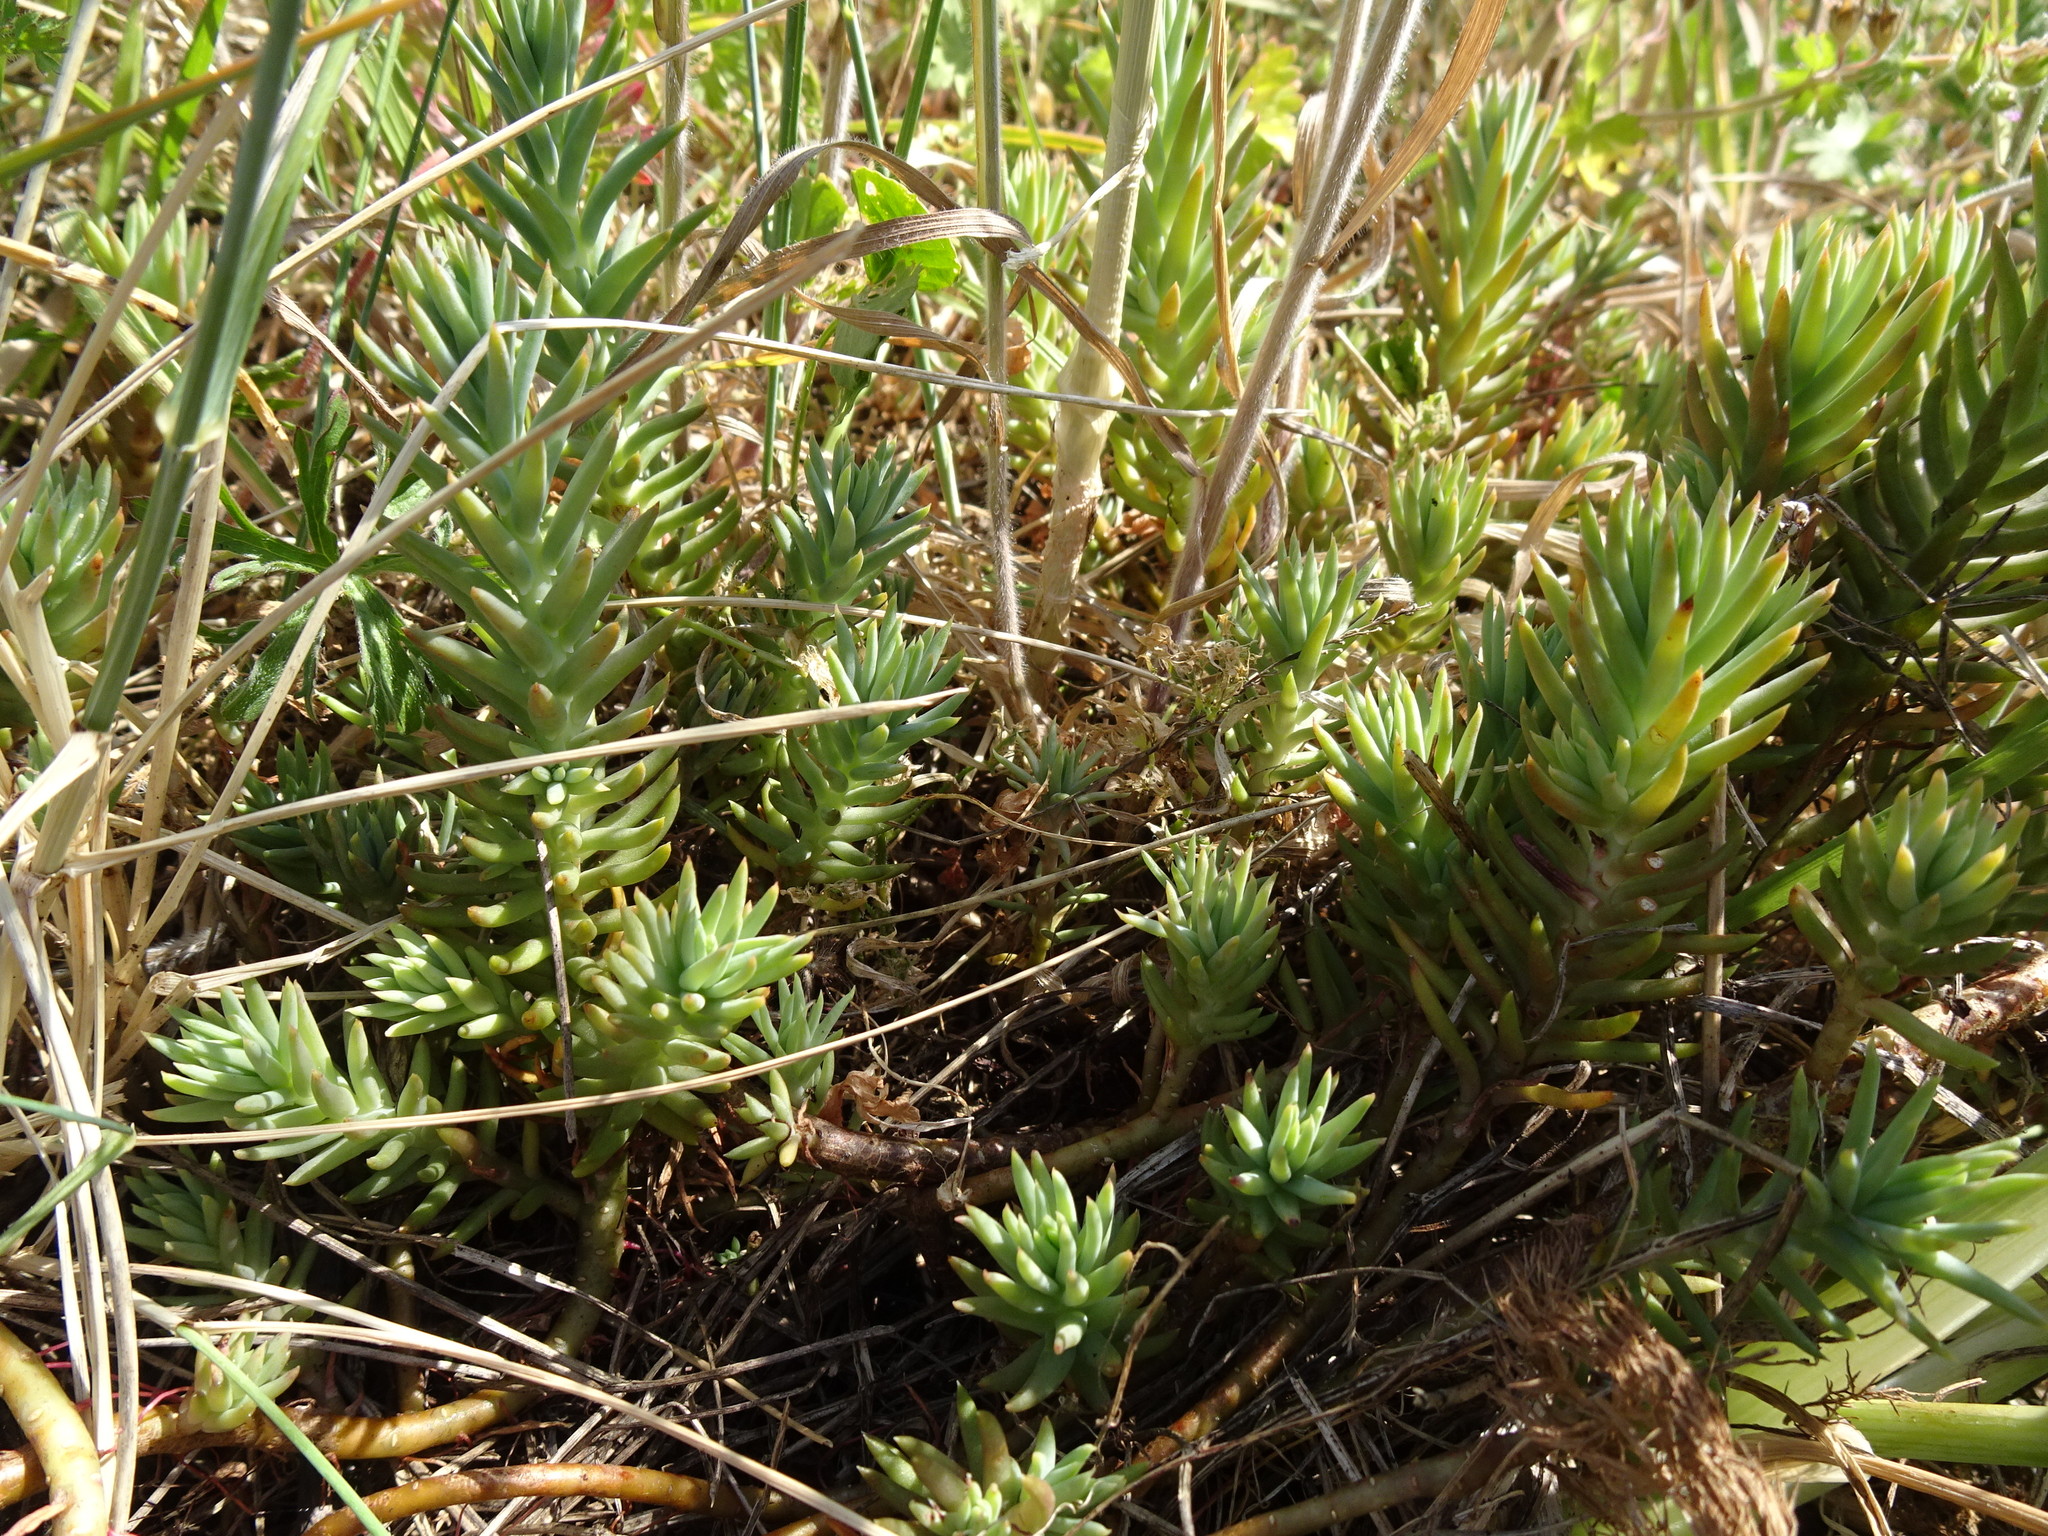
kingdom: Plantae
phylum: Tracheophyta
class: Magnoliopsida
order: Saxifragales
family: Crassulaceae
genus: Petrosedum
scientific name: Petrosedum rupestre
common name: Jenny's stonecrop
